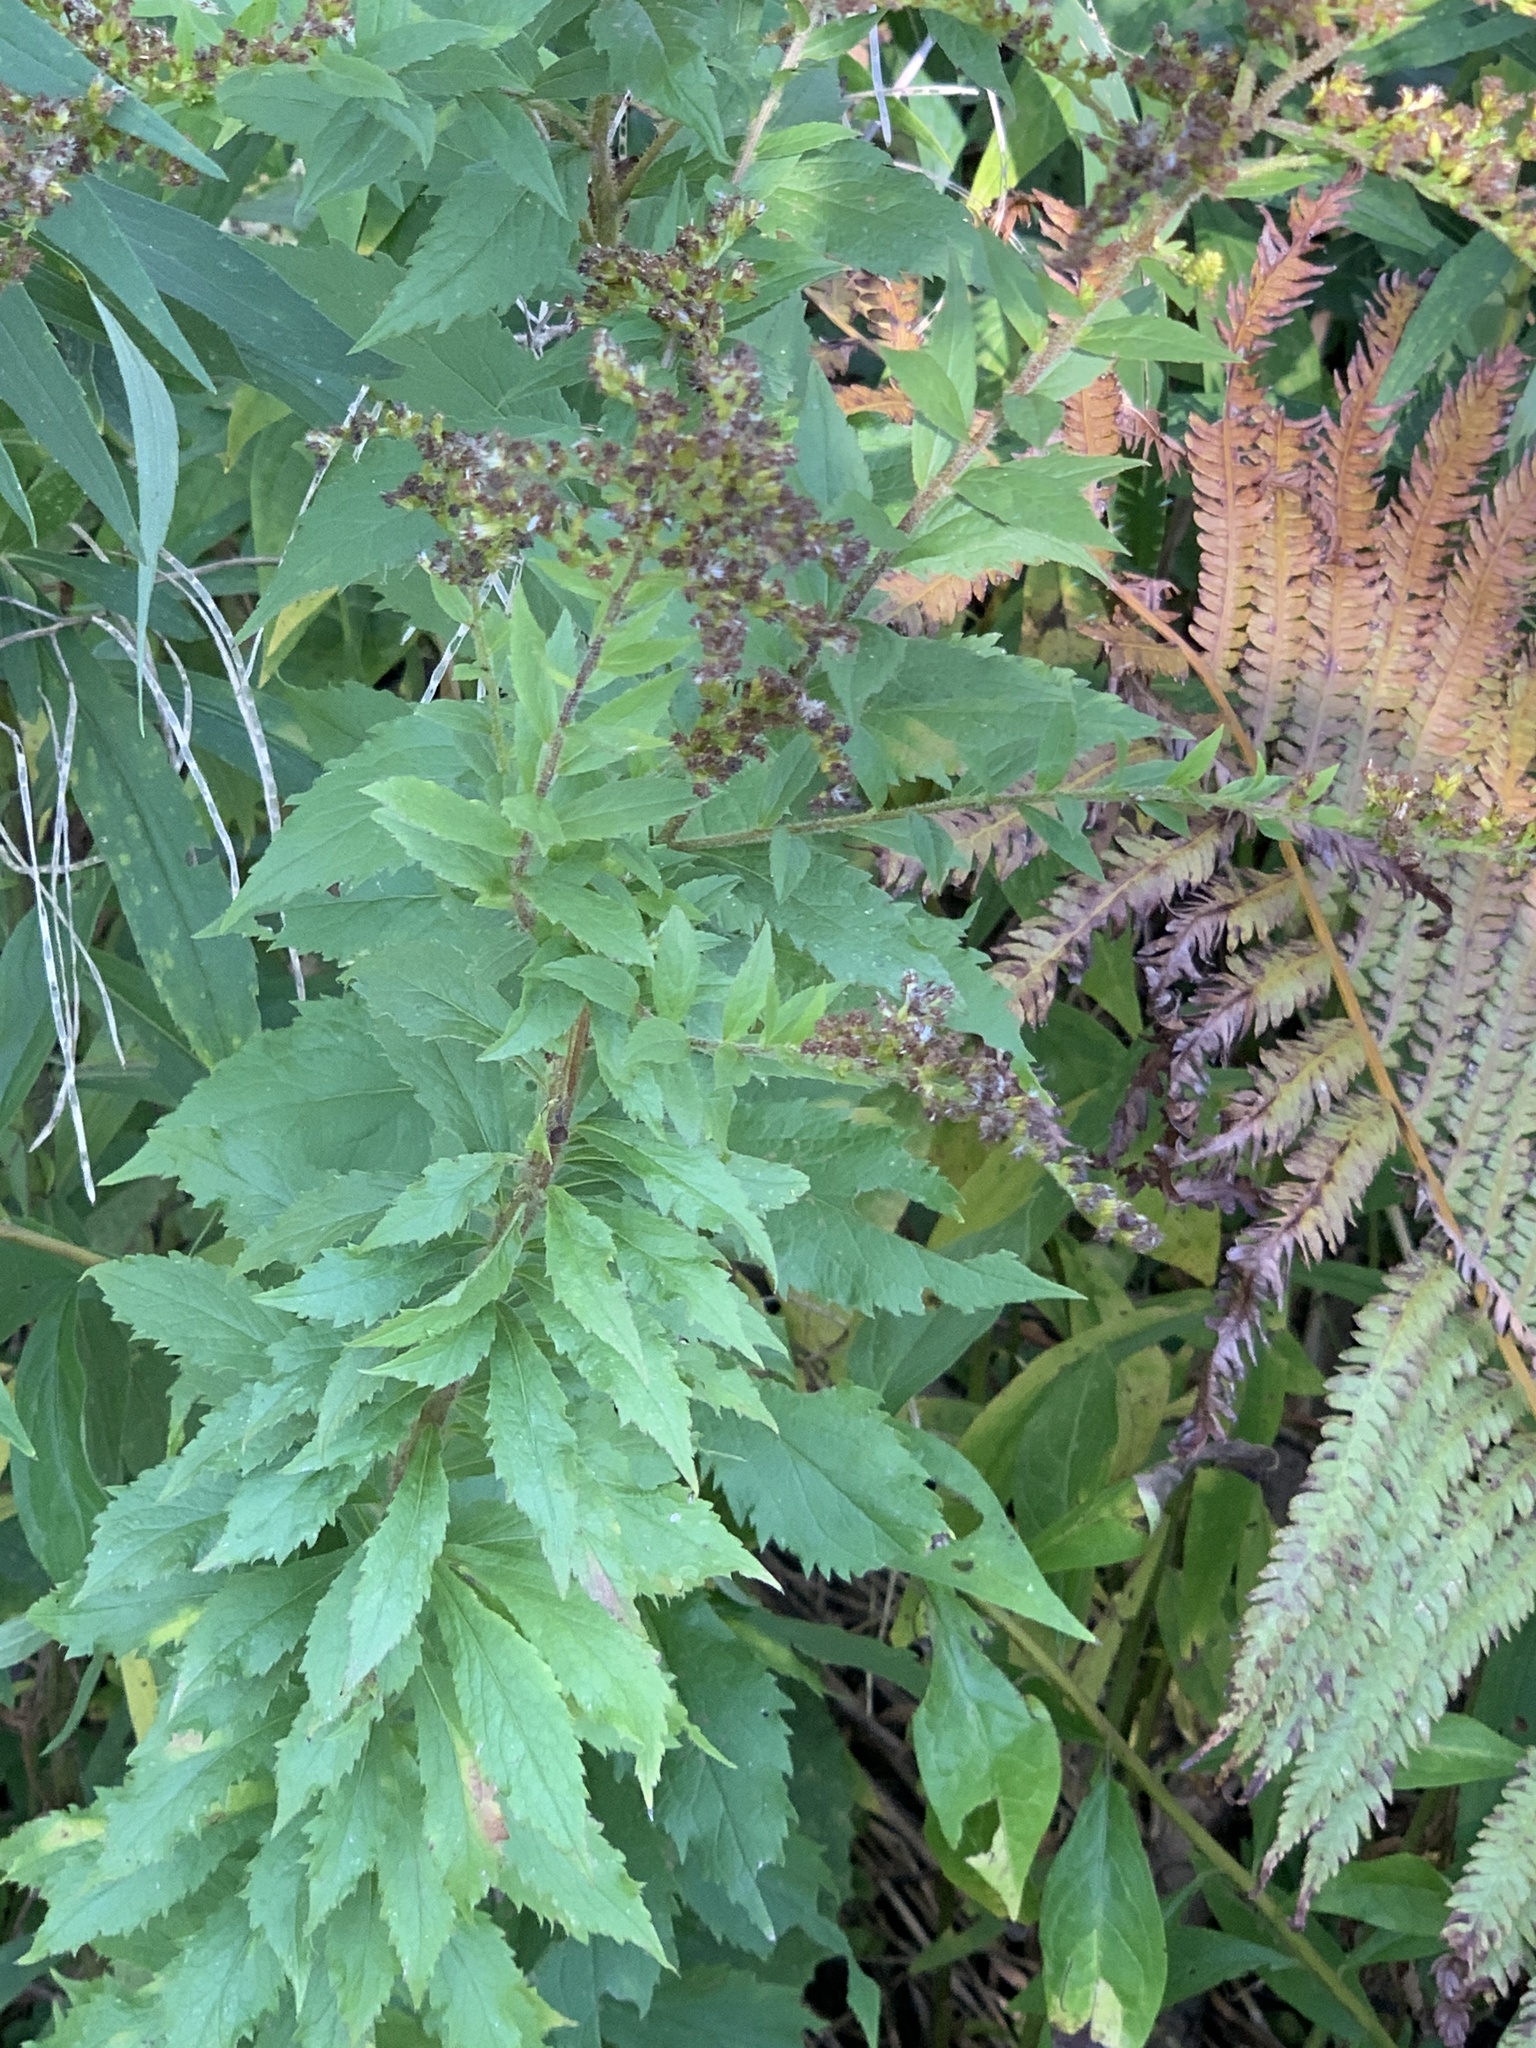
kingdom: Plantae
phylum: Tracheophyta
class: Magnoliopsida
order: Asterales
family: Asteraceae
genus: Solidago
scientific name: Solidago rugosa
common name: Rough-stemmed goldenrod
